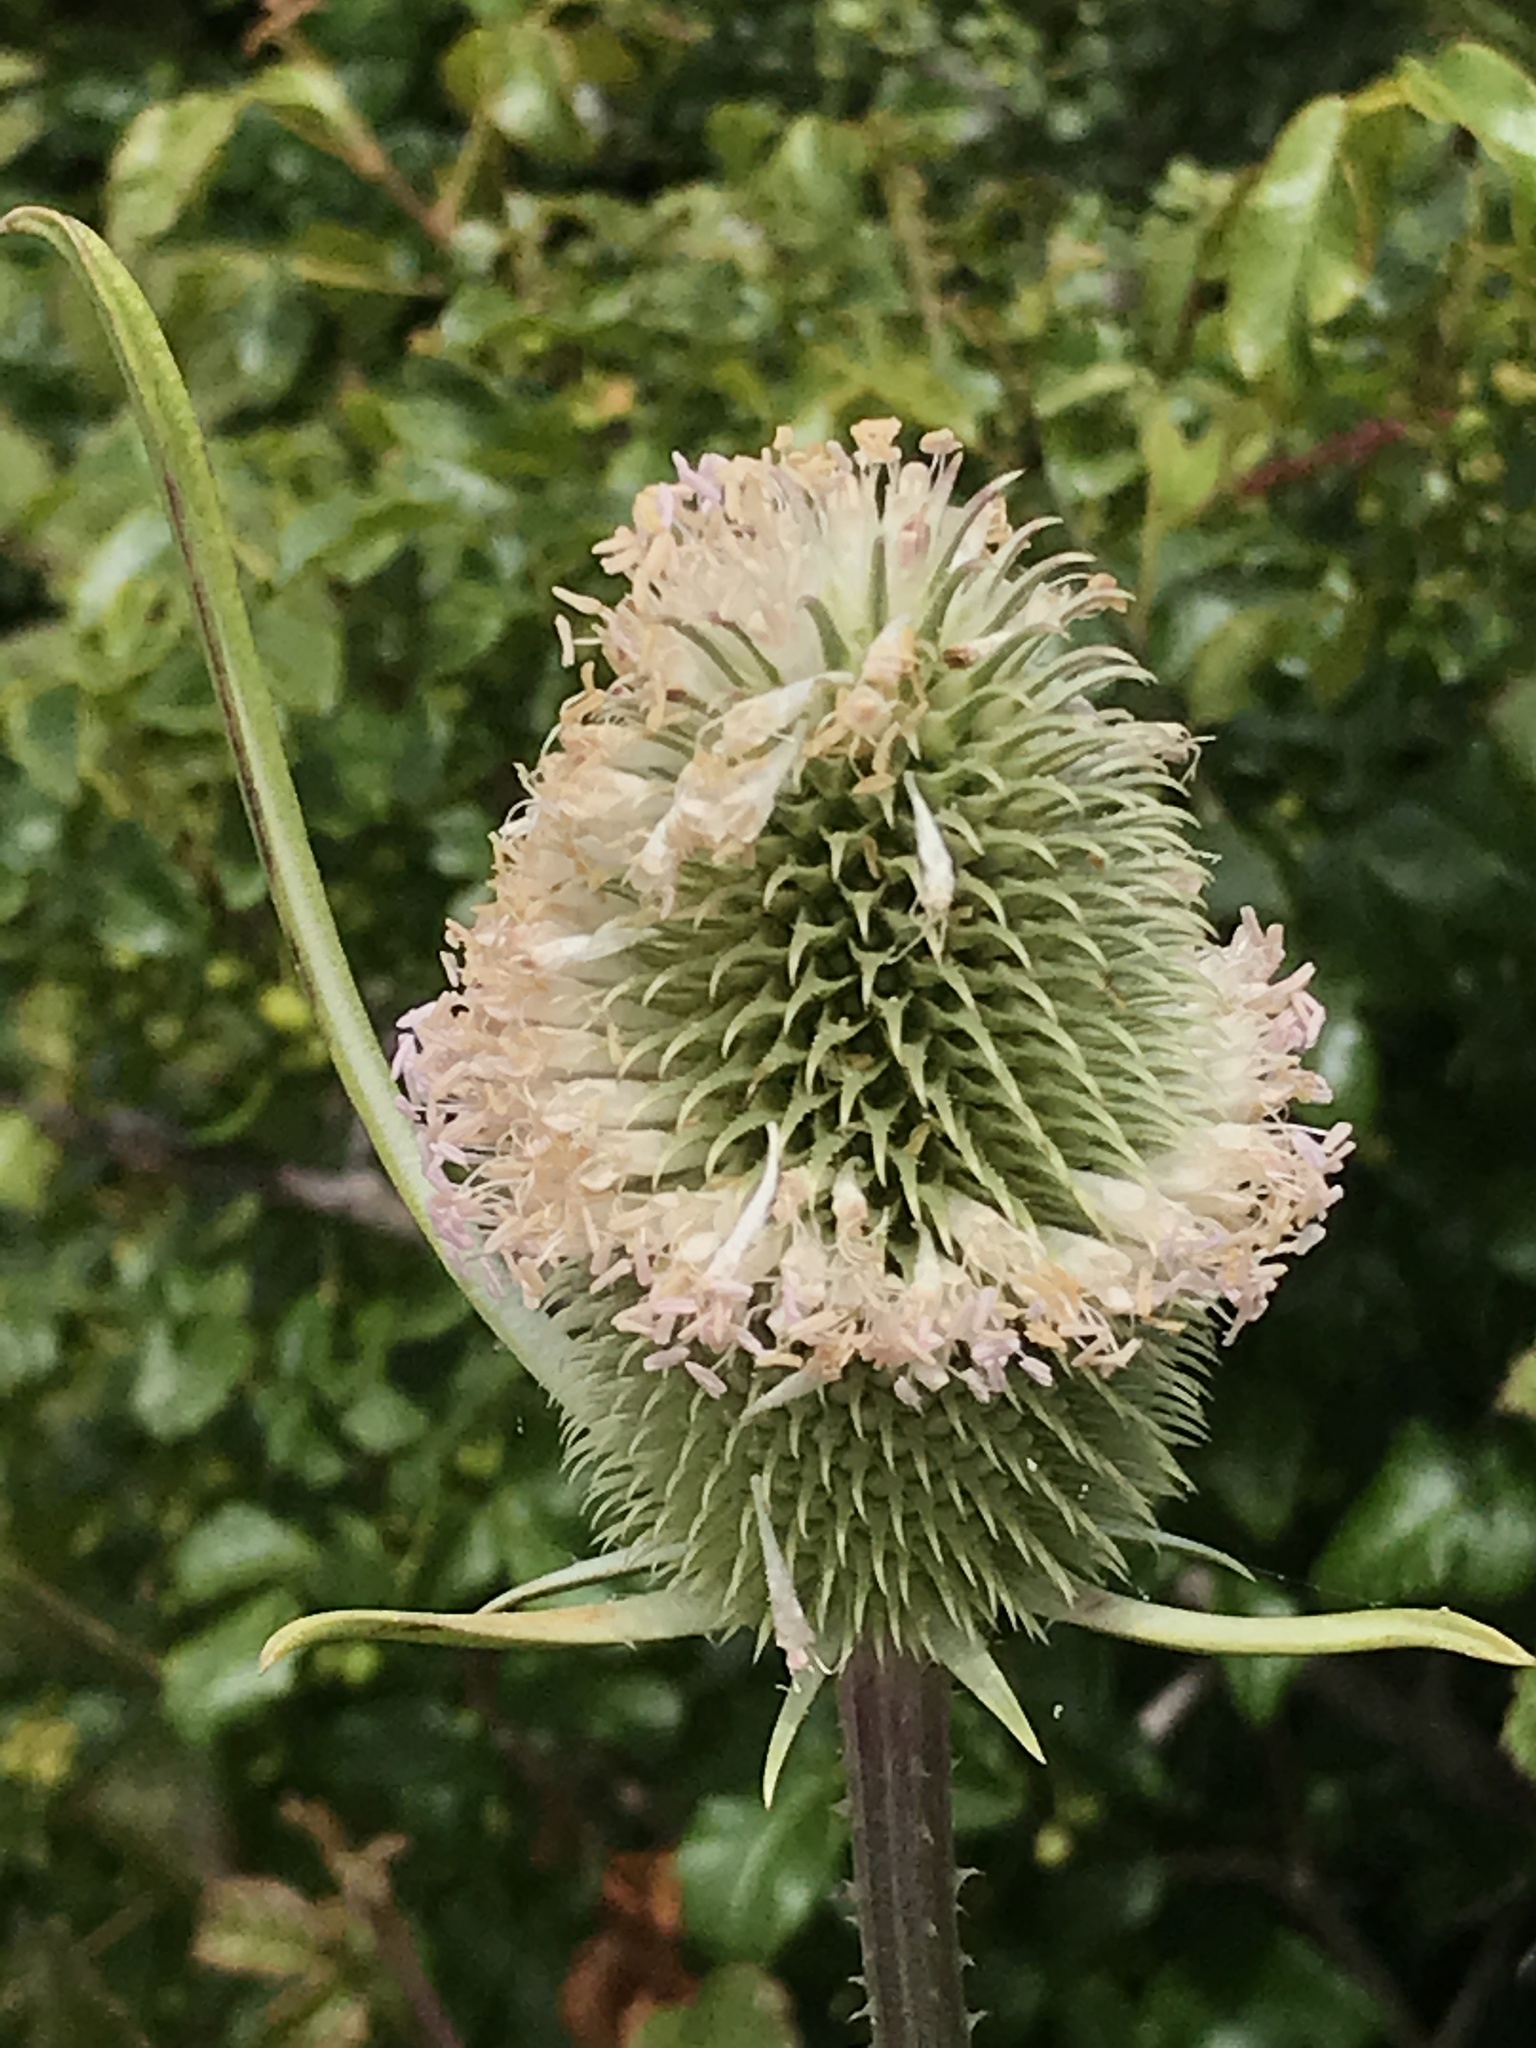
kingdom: Plantae
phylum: Tracheophyta
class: Magnoliopsida
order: Dipsacales
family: Caprifoliaceae
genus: Dipsacus
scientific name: Dipsacus sativus
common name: Fuller's teasel
